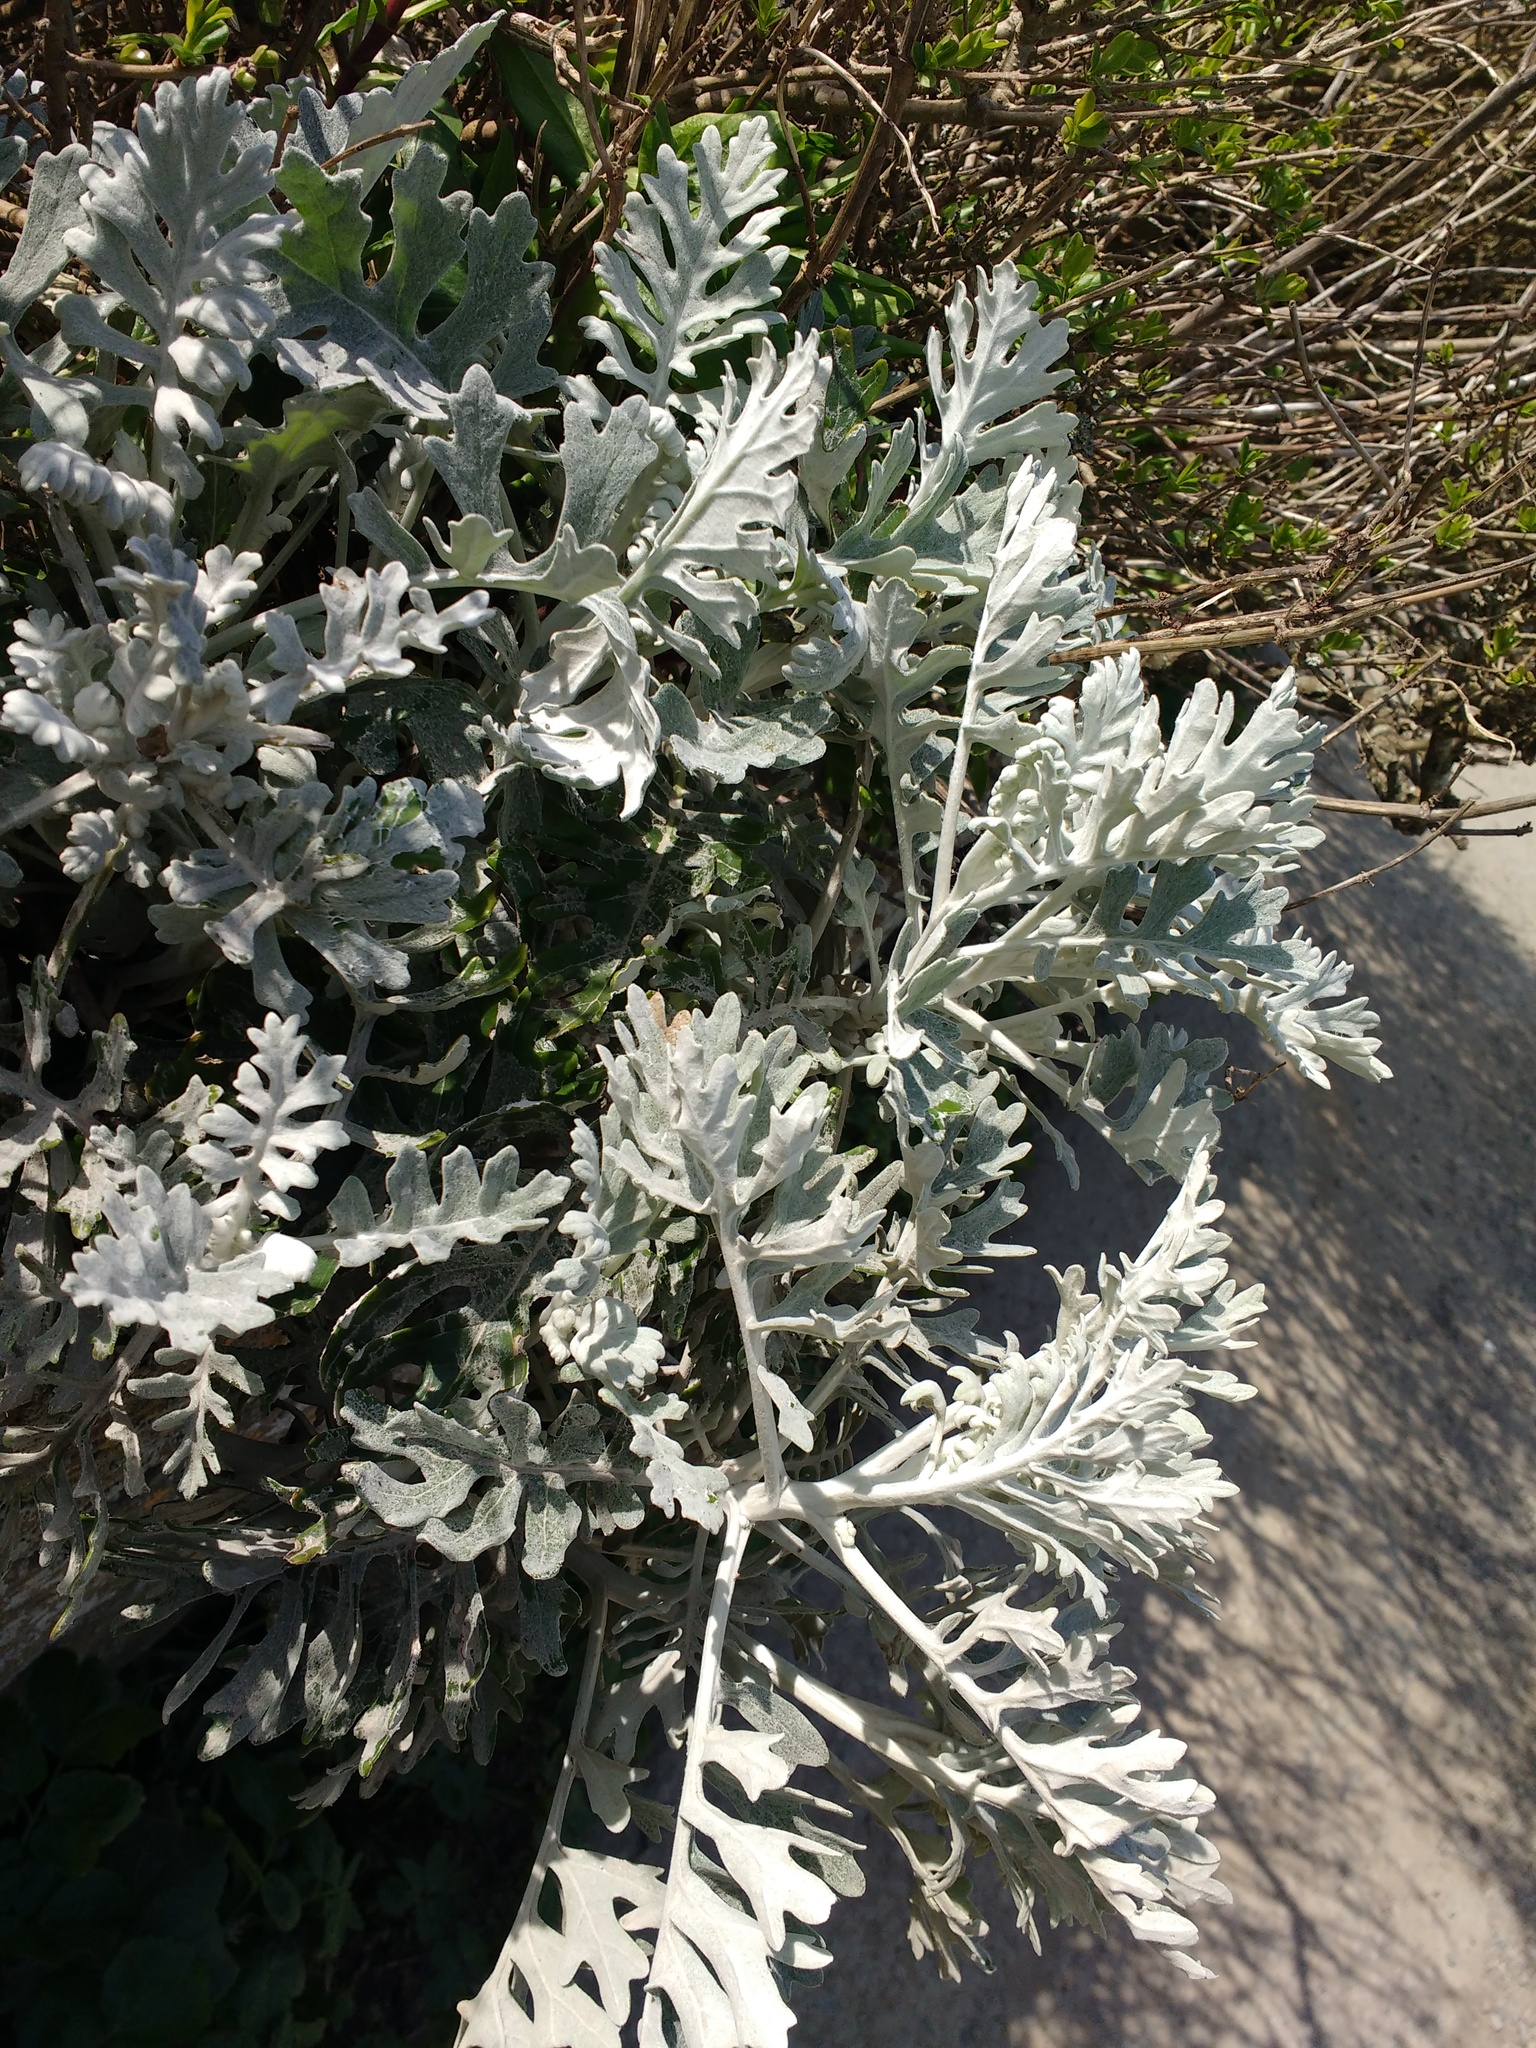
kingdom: Plantae
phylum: Tracheophyta
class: Magnoliopsida
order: Asterales
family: Asteraceae
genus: Jacobaea
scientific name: Jacobaea maritima
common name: Silver ragwort
